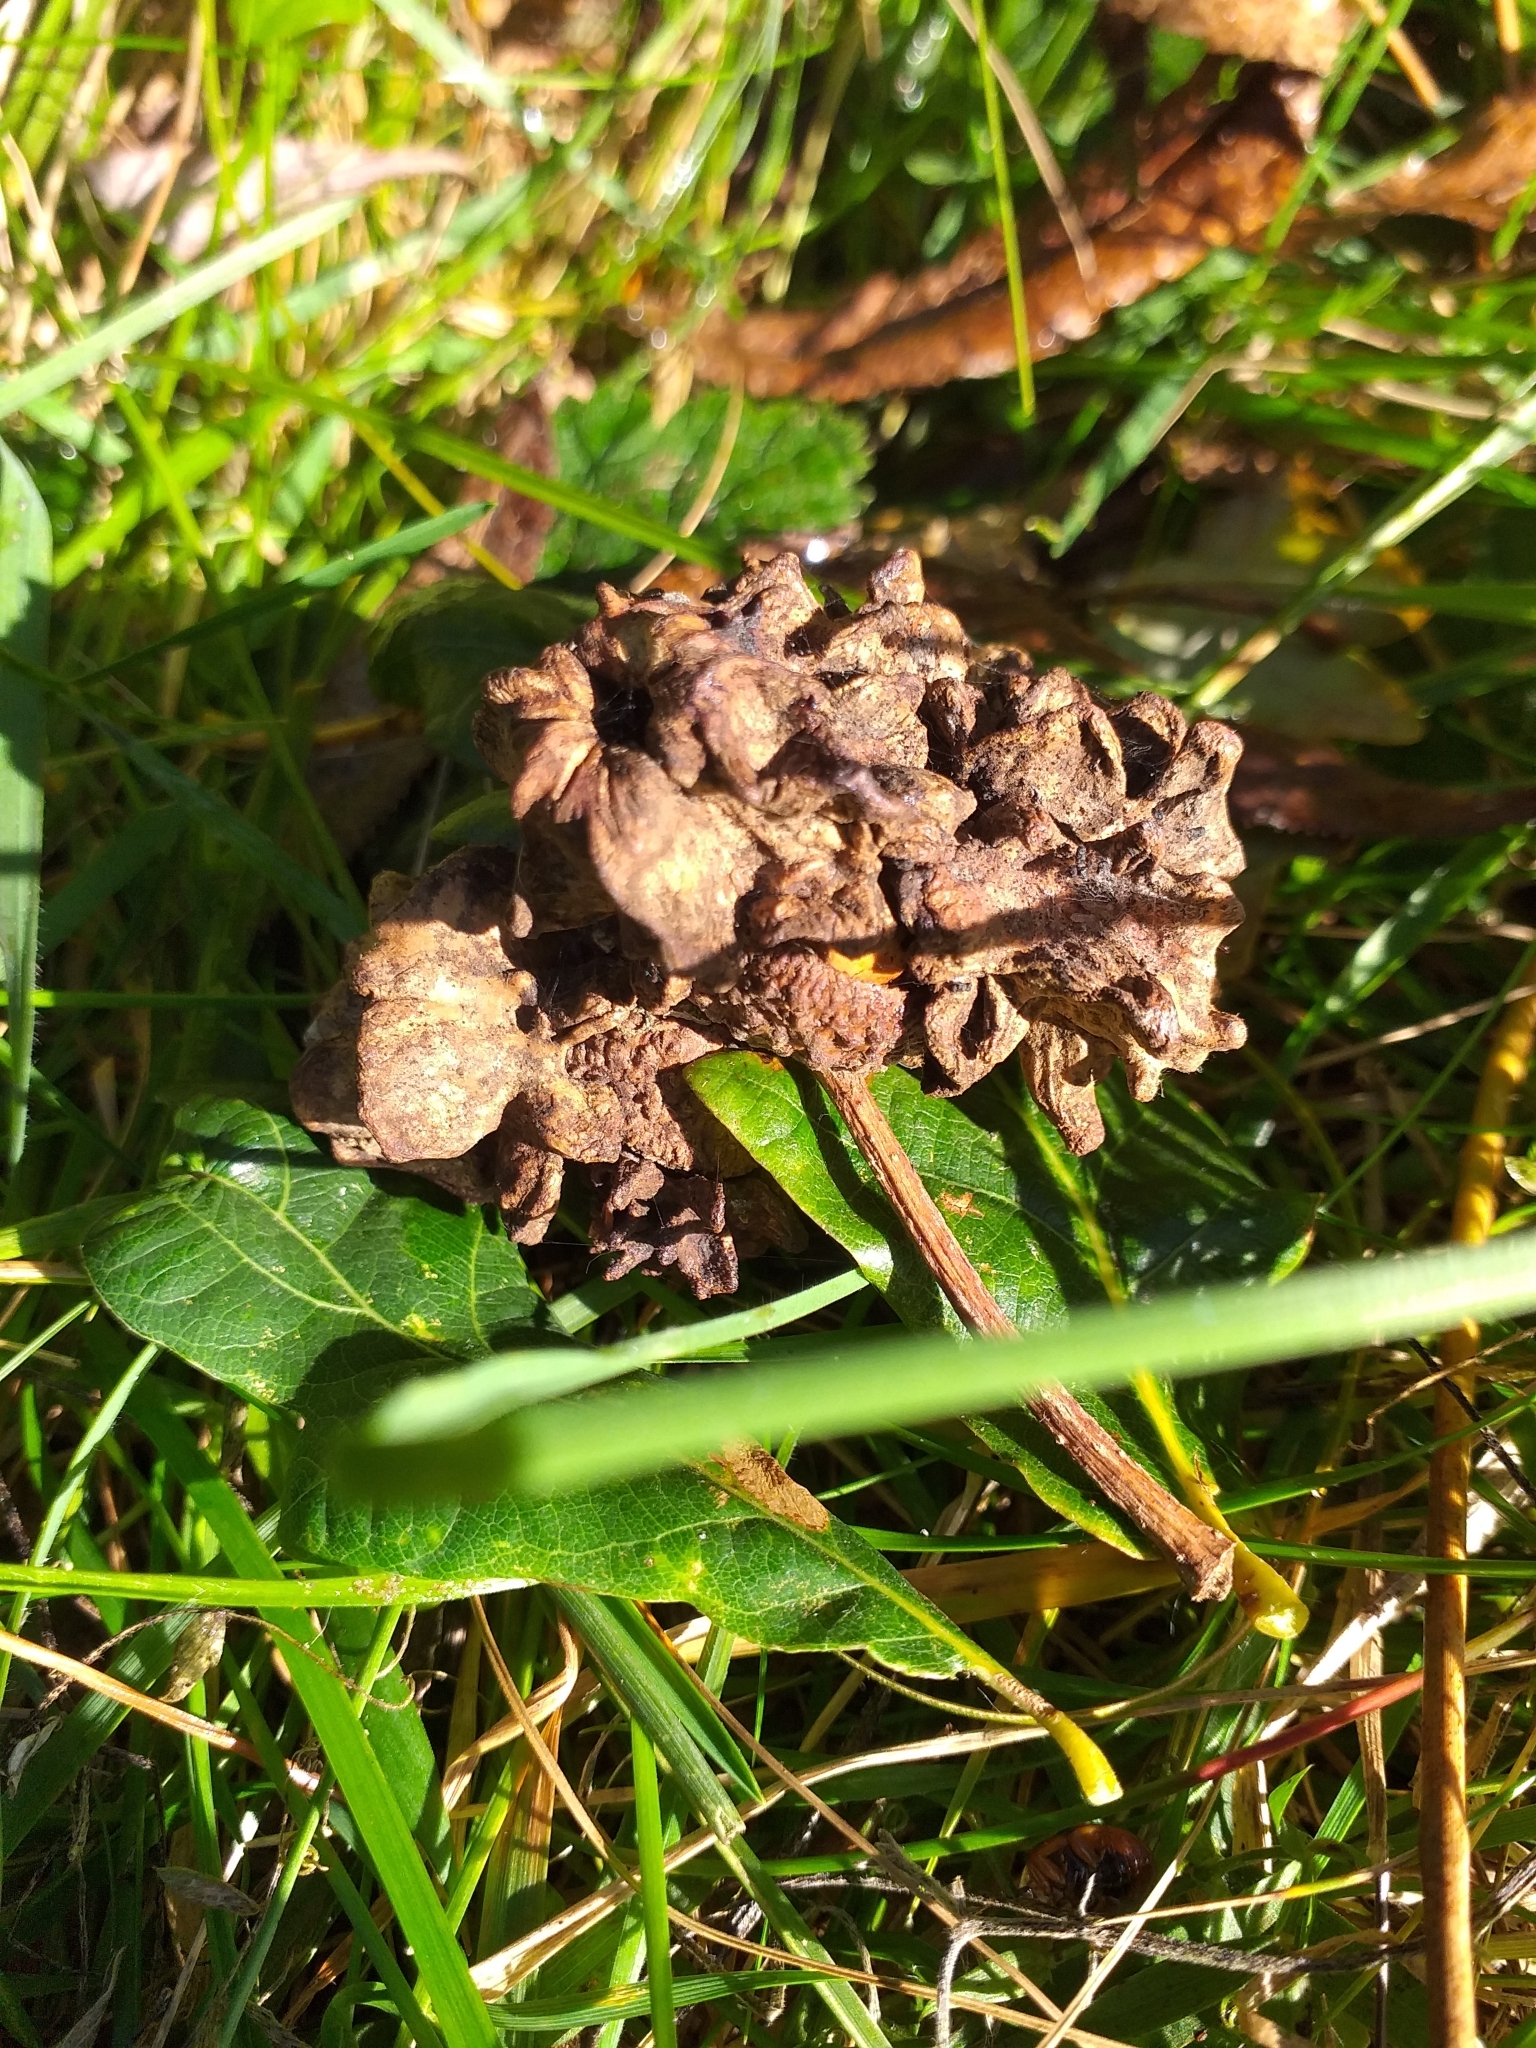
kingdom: Animalia
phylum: Arthropoda
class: Insecta
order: Hymenoptera
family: Cynipidae
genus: Andricus
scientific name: Andricus quercuscalicis
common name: Knopper gall
